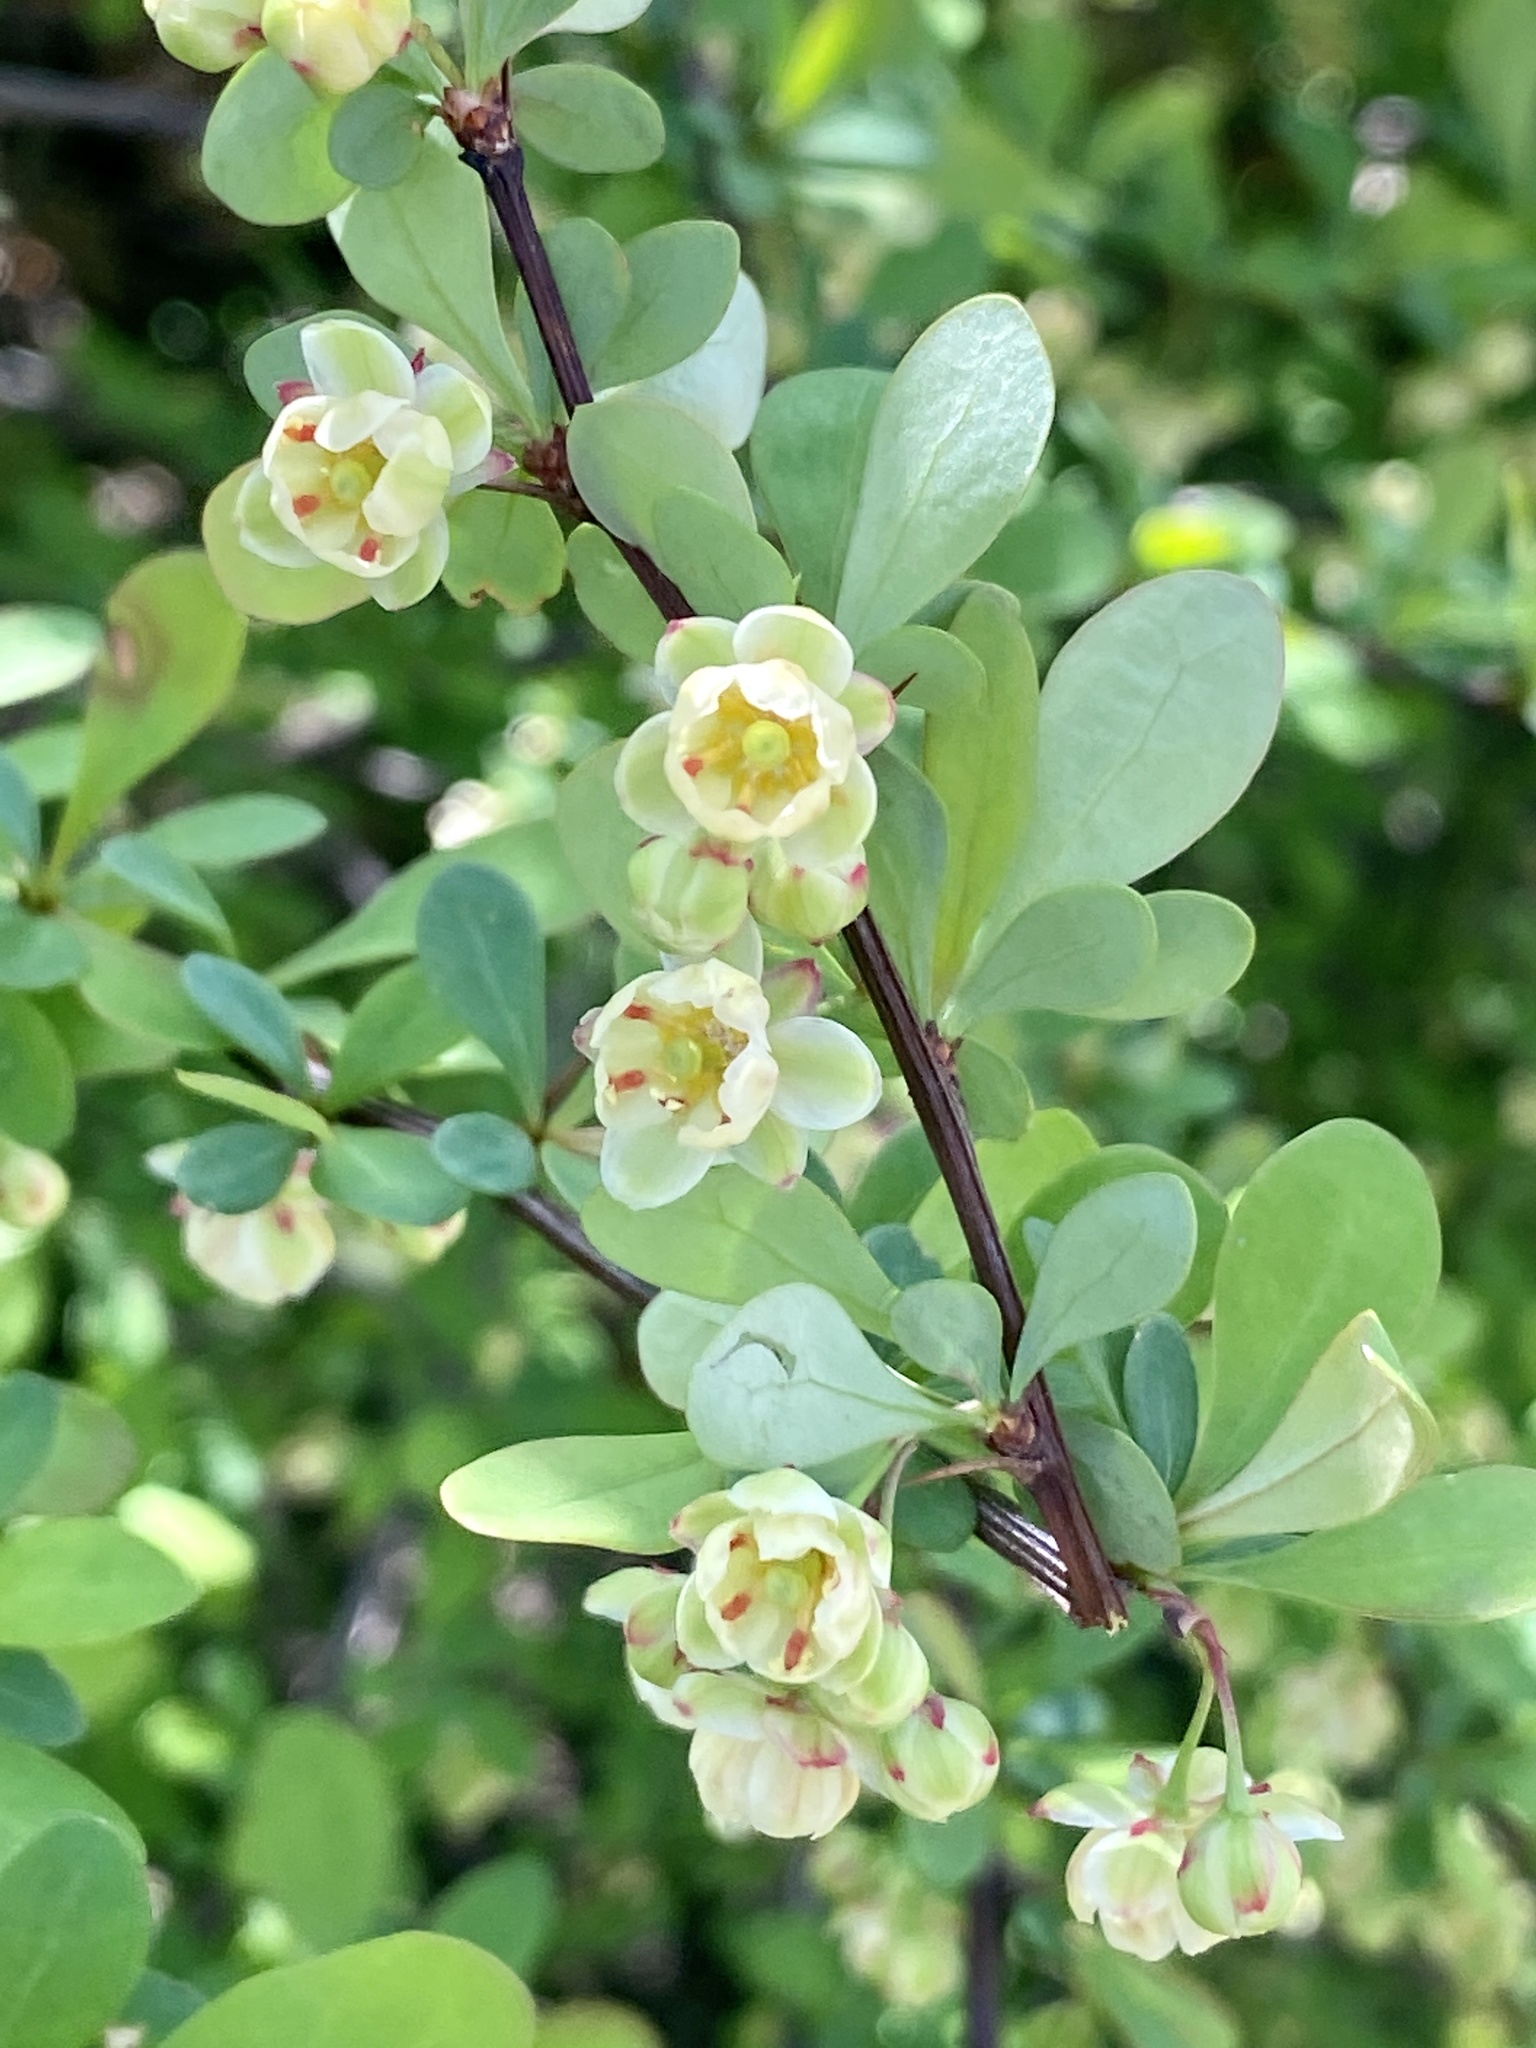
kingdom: Plantae
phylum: Tracheophyta
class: Magnoliopsida
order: Ranunculales
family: Berberidaceae
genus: Berberis
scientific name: Berberis thunbergii
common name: Japanese barberry
